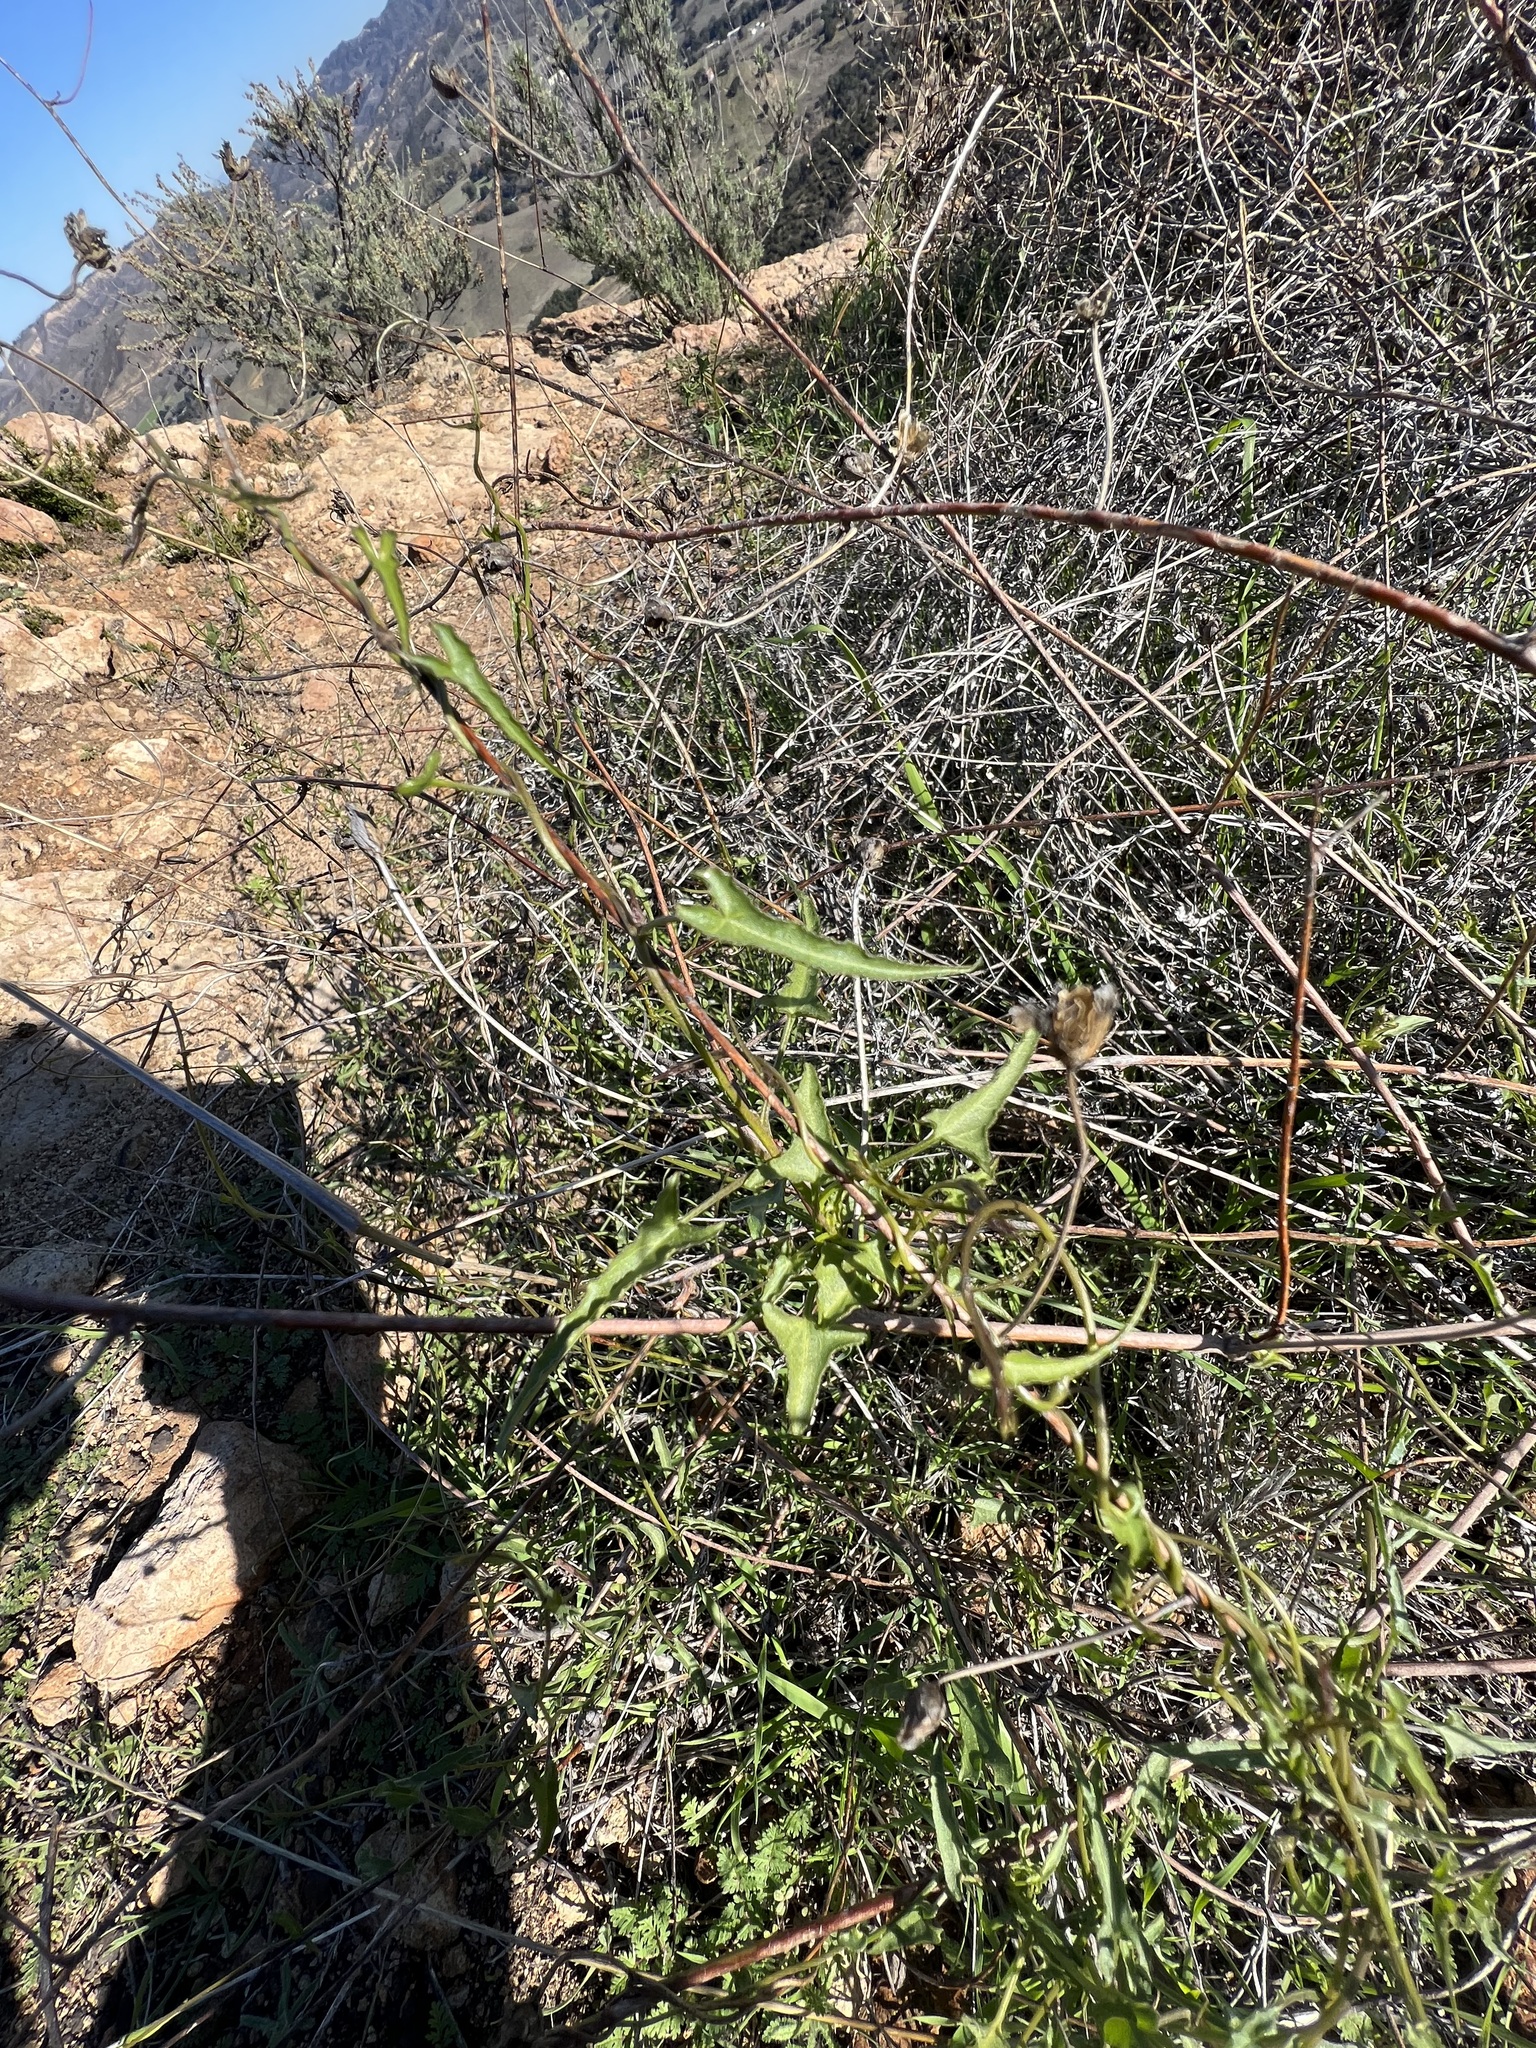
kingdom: Plantae
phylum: Tracheophyta
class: Magnoliopsida
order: Solanales
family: Convolvulaceae
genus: Calystegia
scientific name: Calystegia macrostegia
